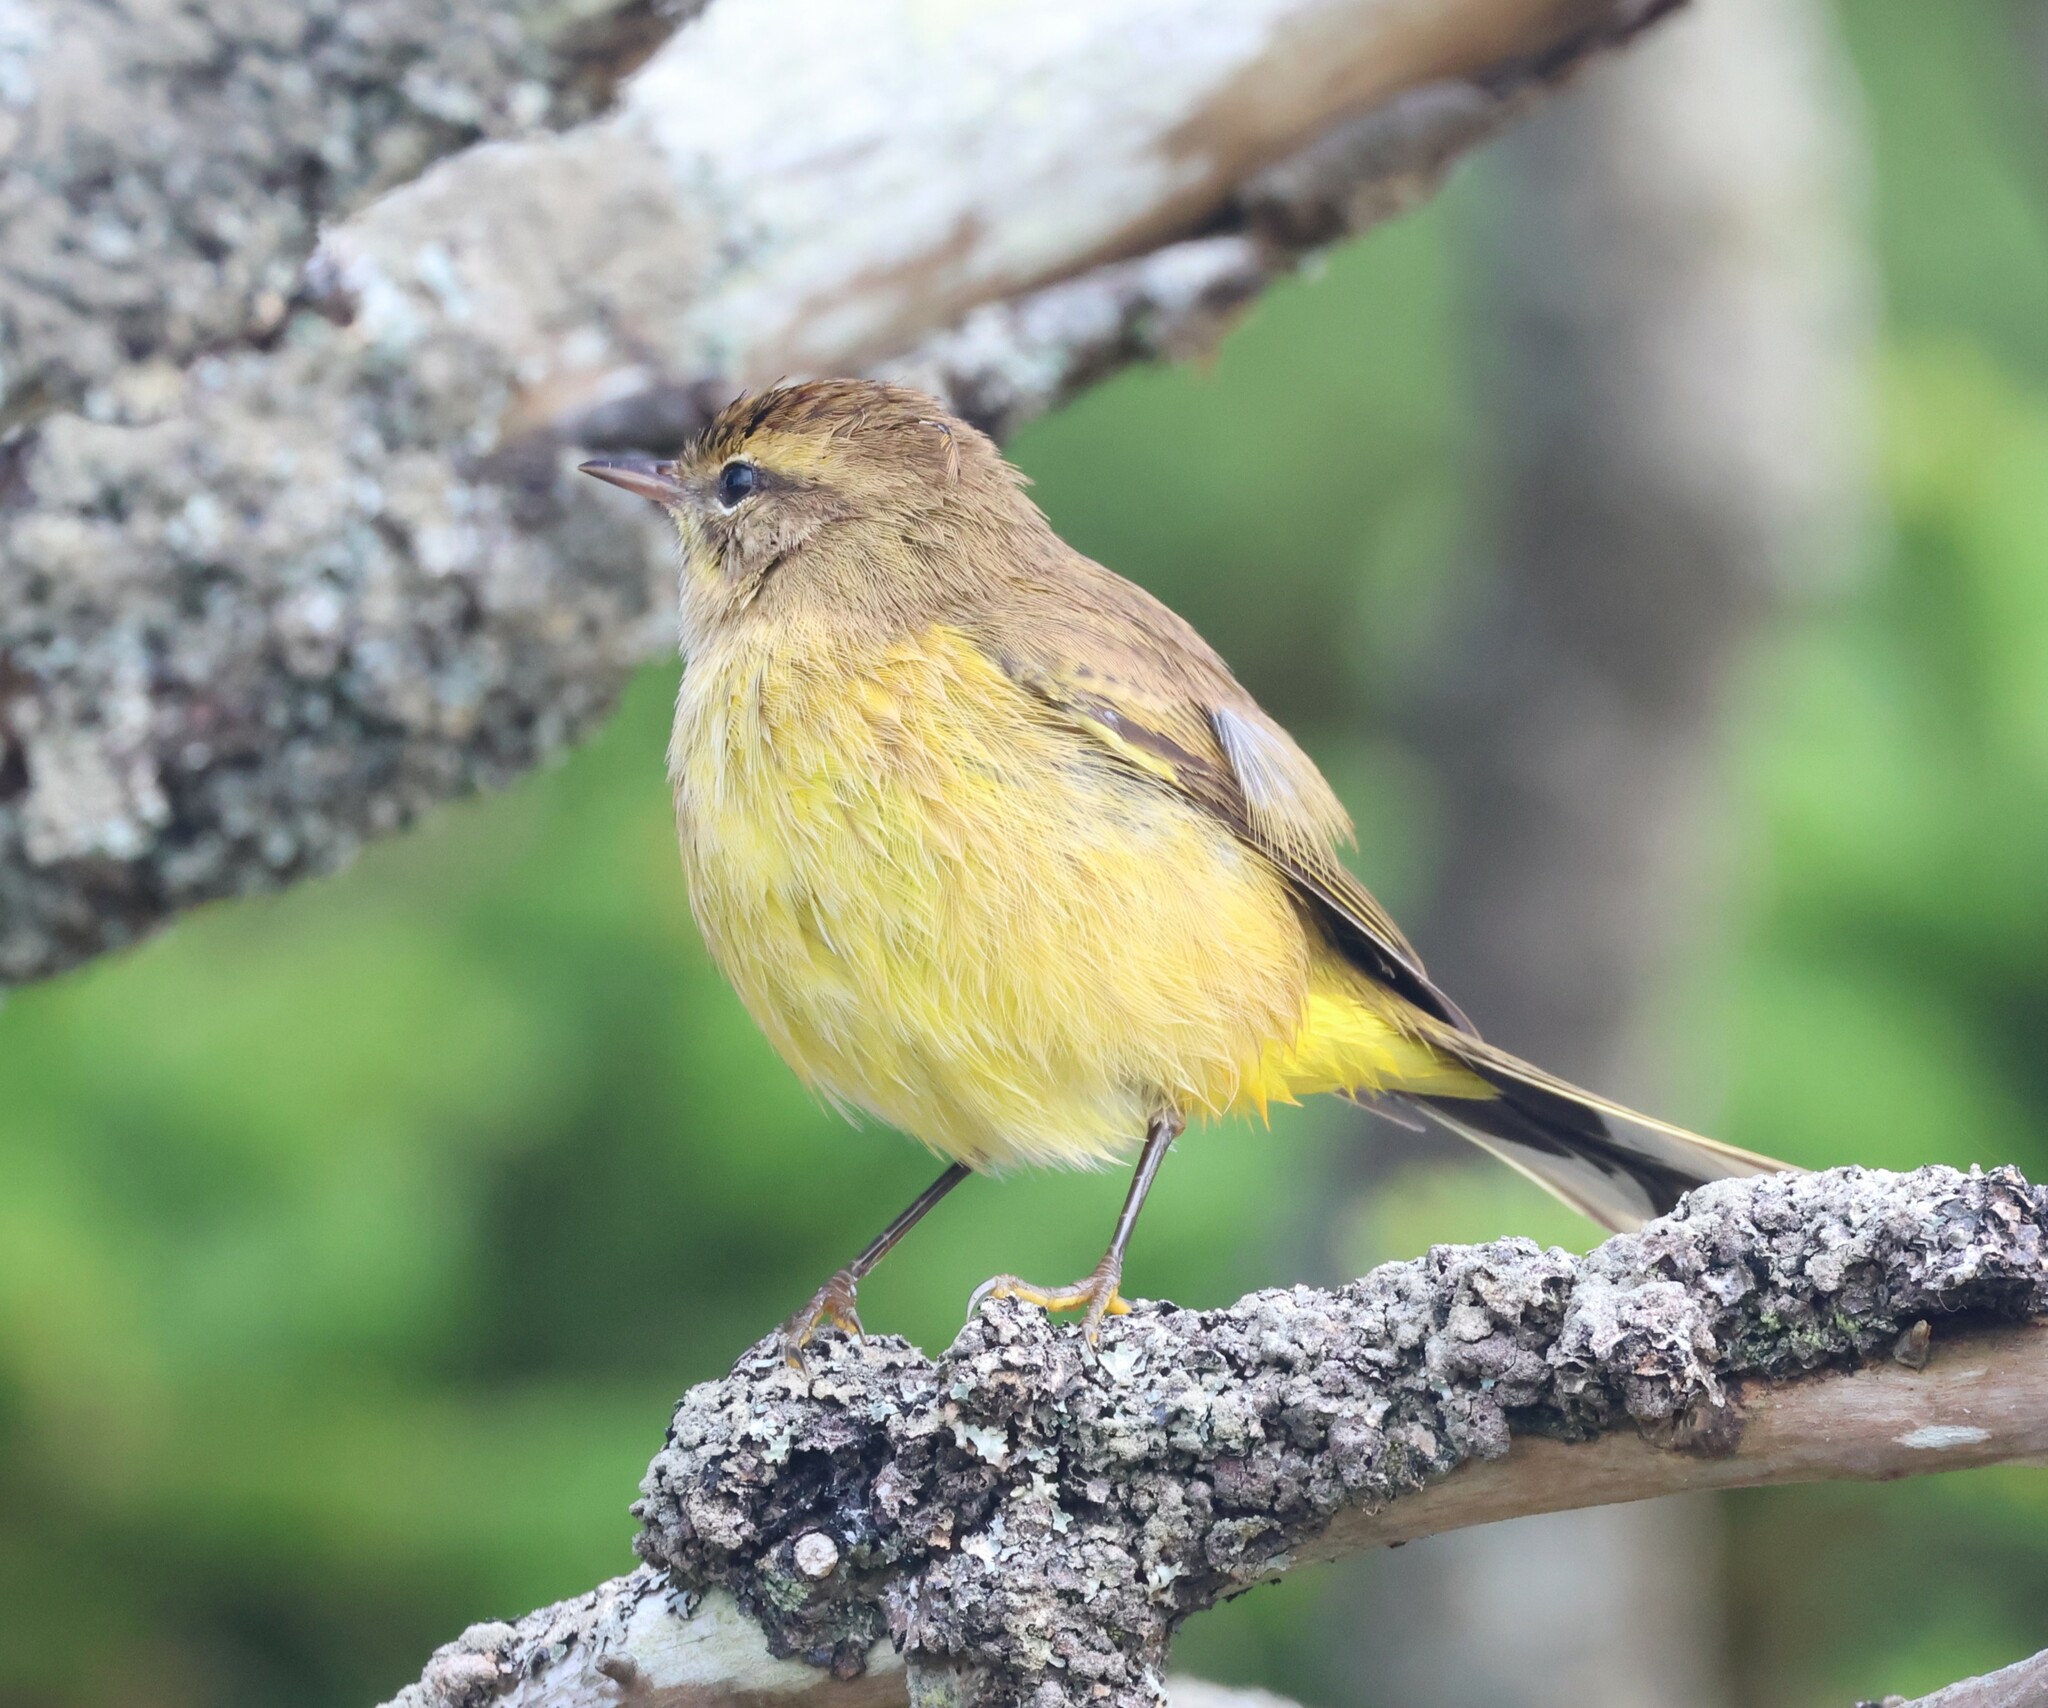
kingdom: Animalia
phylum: Chordata
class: Aves
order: Passeriformes
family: Parulidae
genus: Setophaga
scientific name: Setophaga palmarum
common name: Palm warbler
